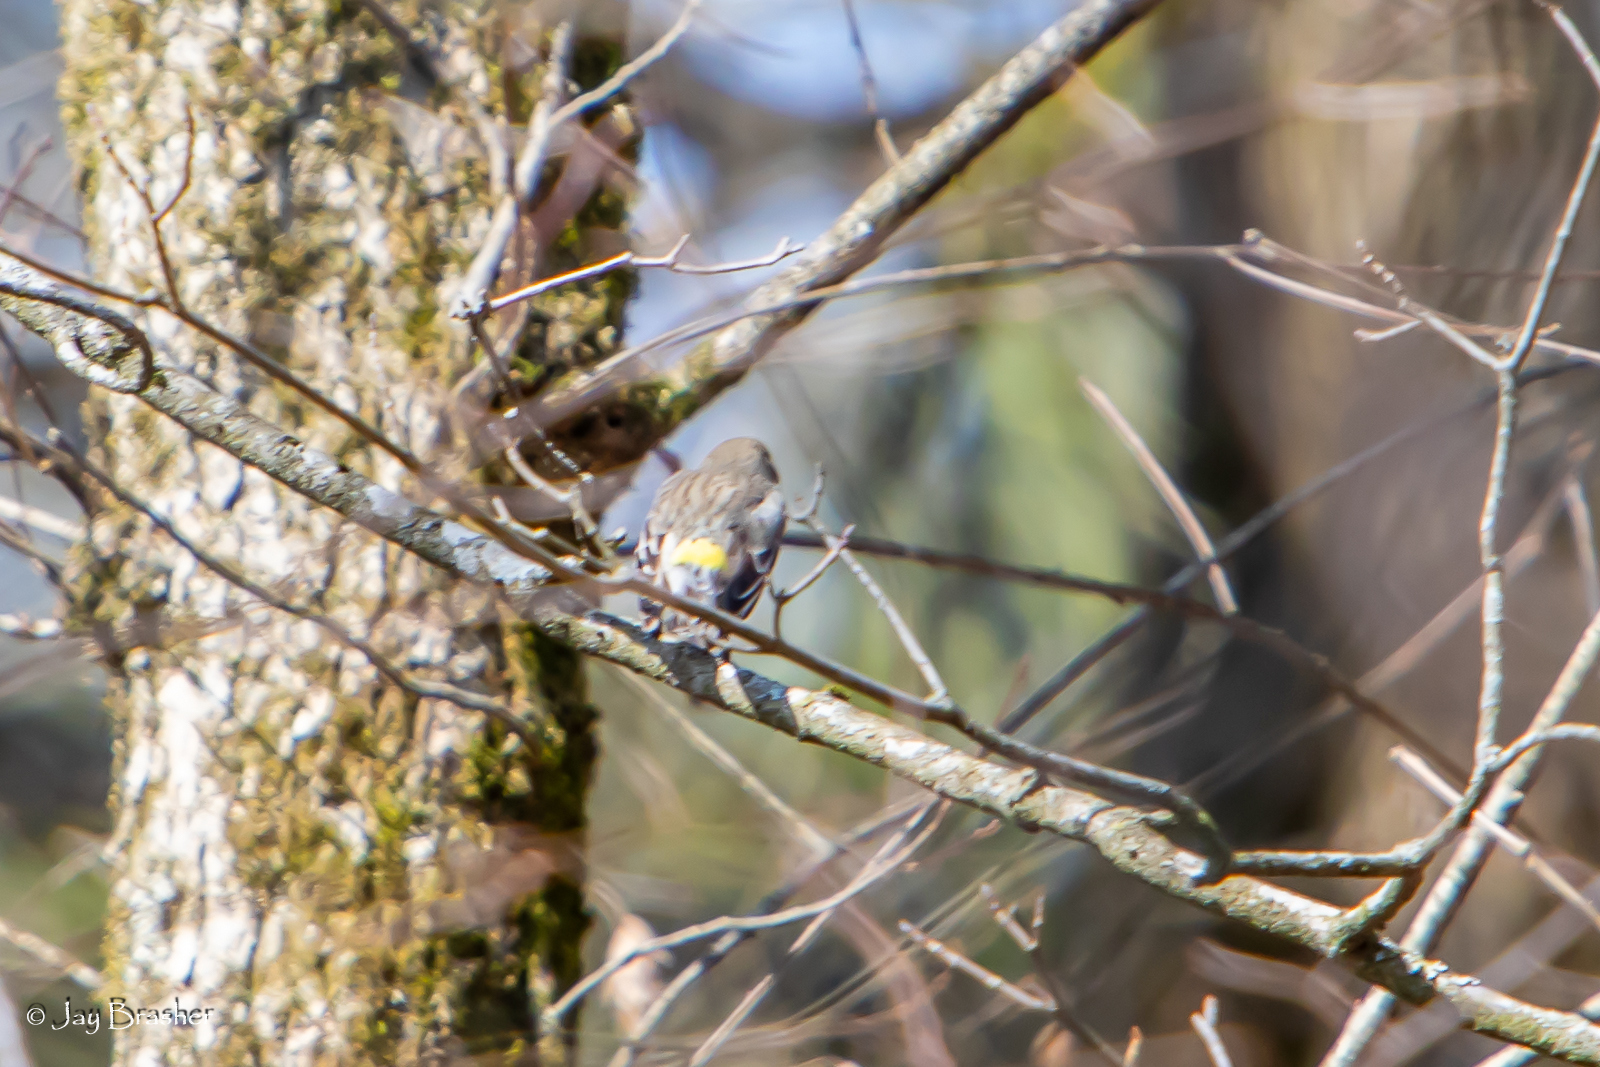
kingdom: Animalia
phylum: Chordata
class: Aves
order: Passeriformes
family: Parulidae
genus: Setophaga
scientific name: Setophaga coronata
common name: Myrtle warbler
